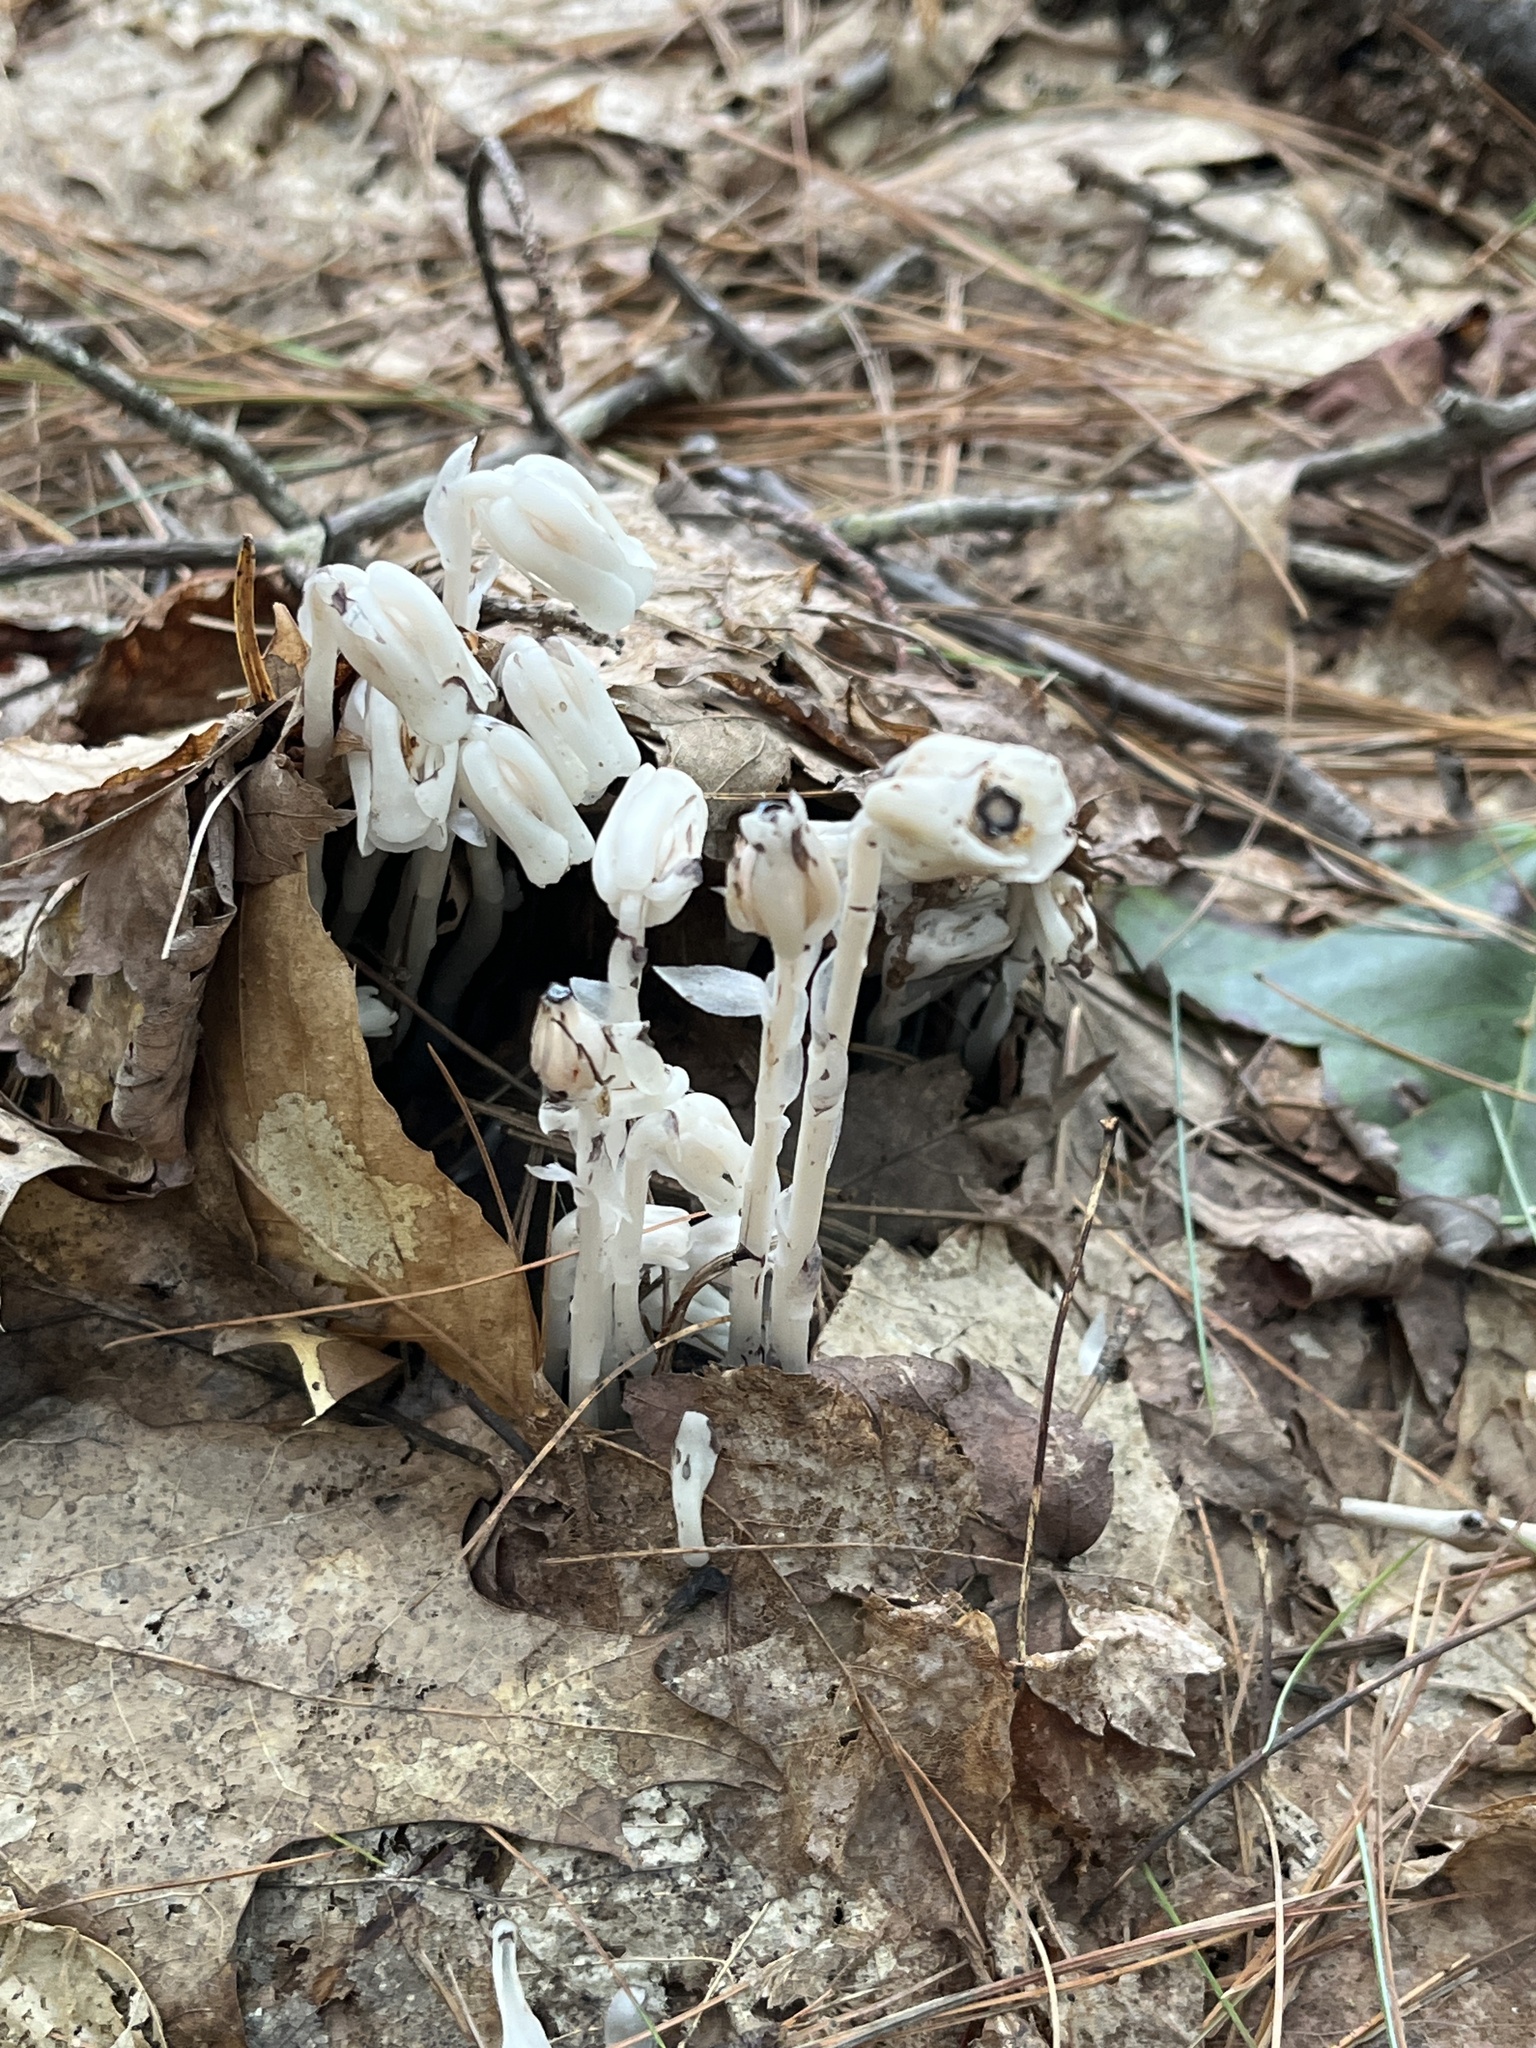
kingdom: Plantae
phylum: Tracheophyta
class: Magnoliopsida
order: Ericales
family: Ericaceae
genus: Monotropa
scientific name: Monotropa uniflora
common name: Convulsion root
